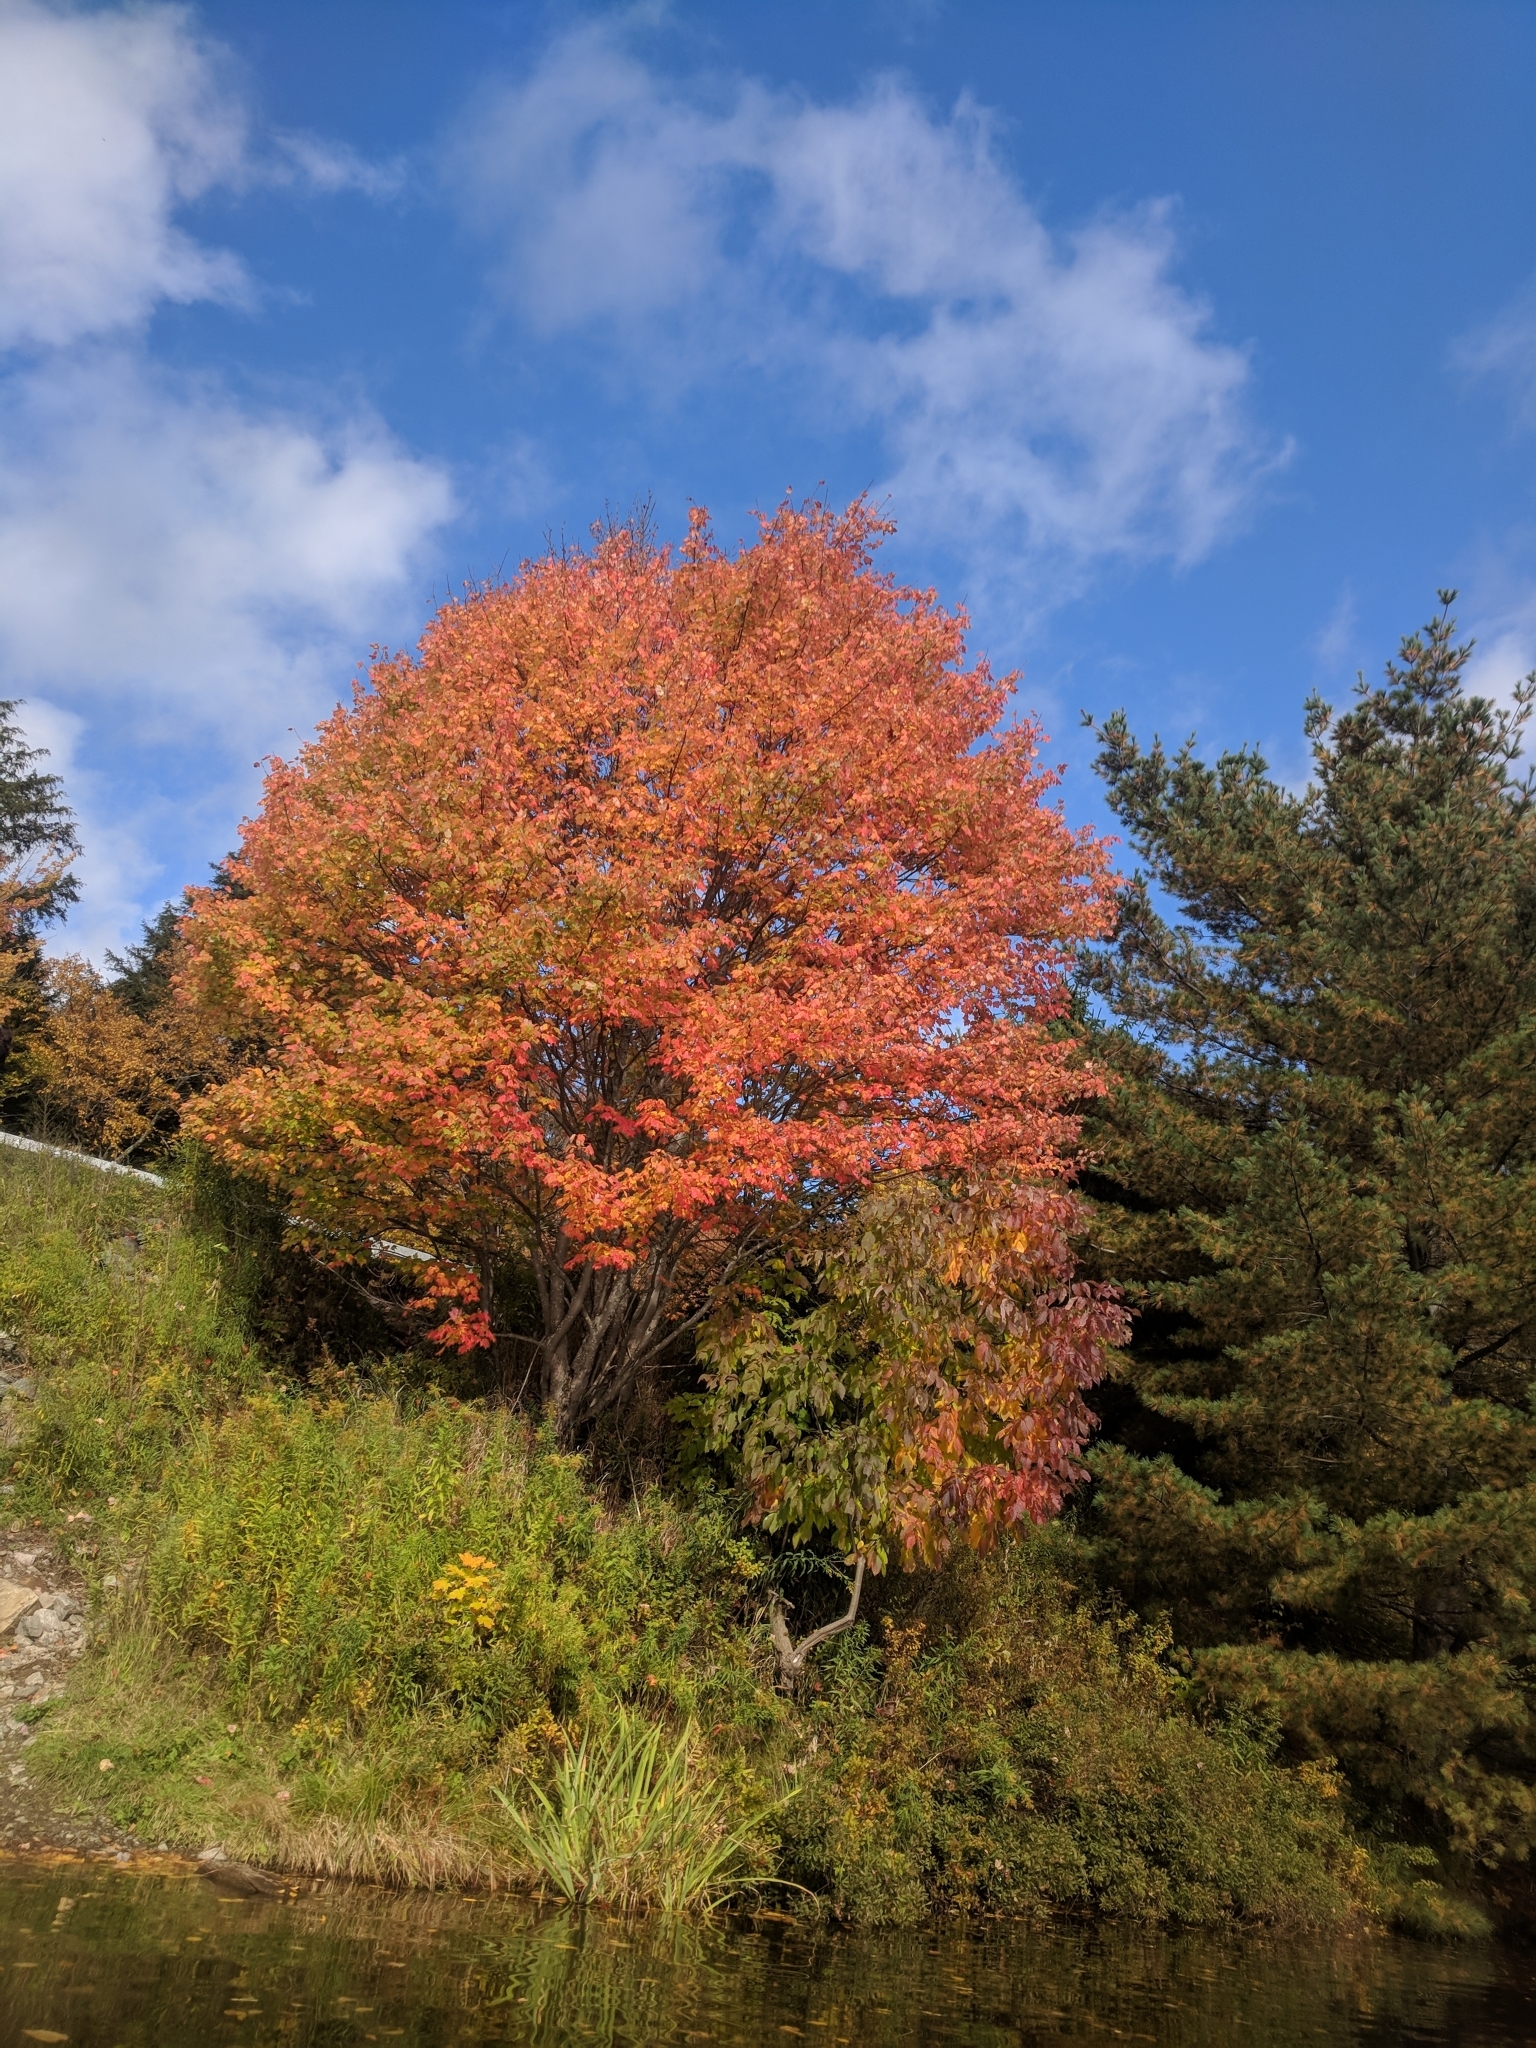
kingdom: Plantae
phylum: Tracheophyta
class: Magnoliopsida
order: Sapindales
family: Sapindaceae
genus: Acer
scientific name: Acer rubrum
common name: Red maple
